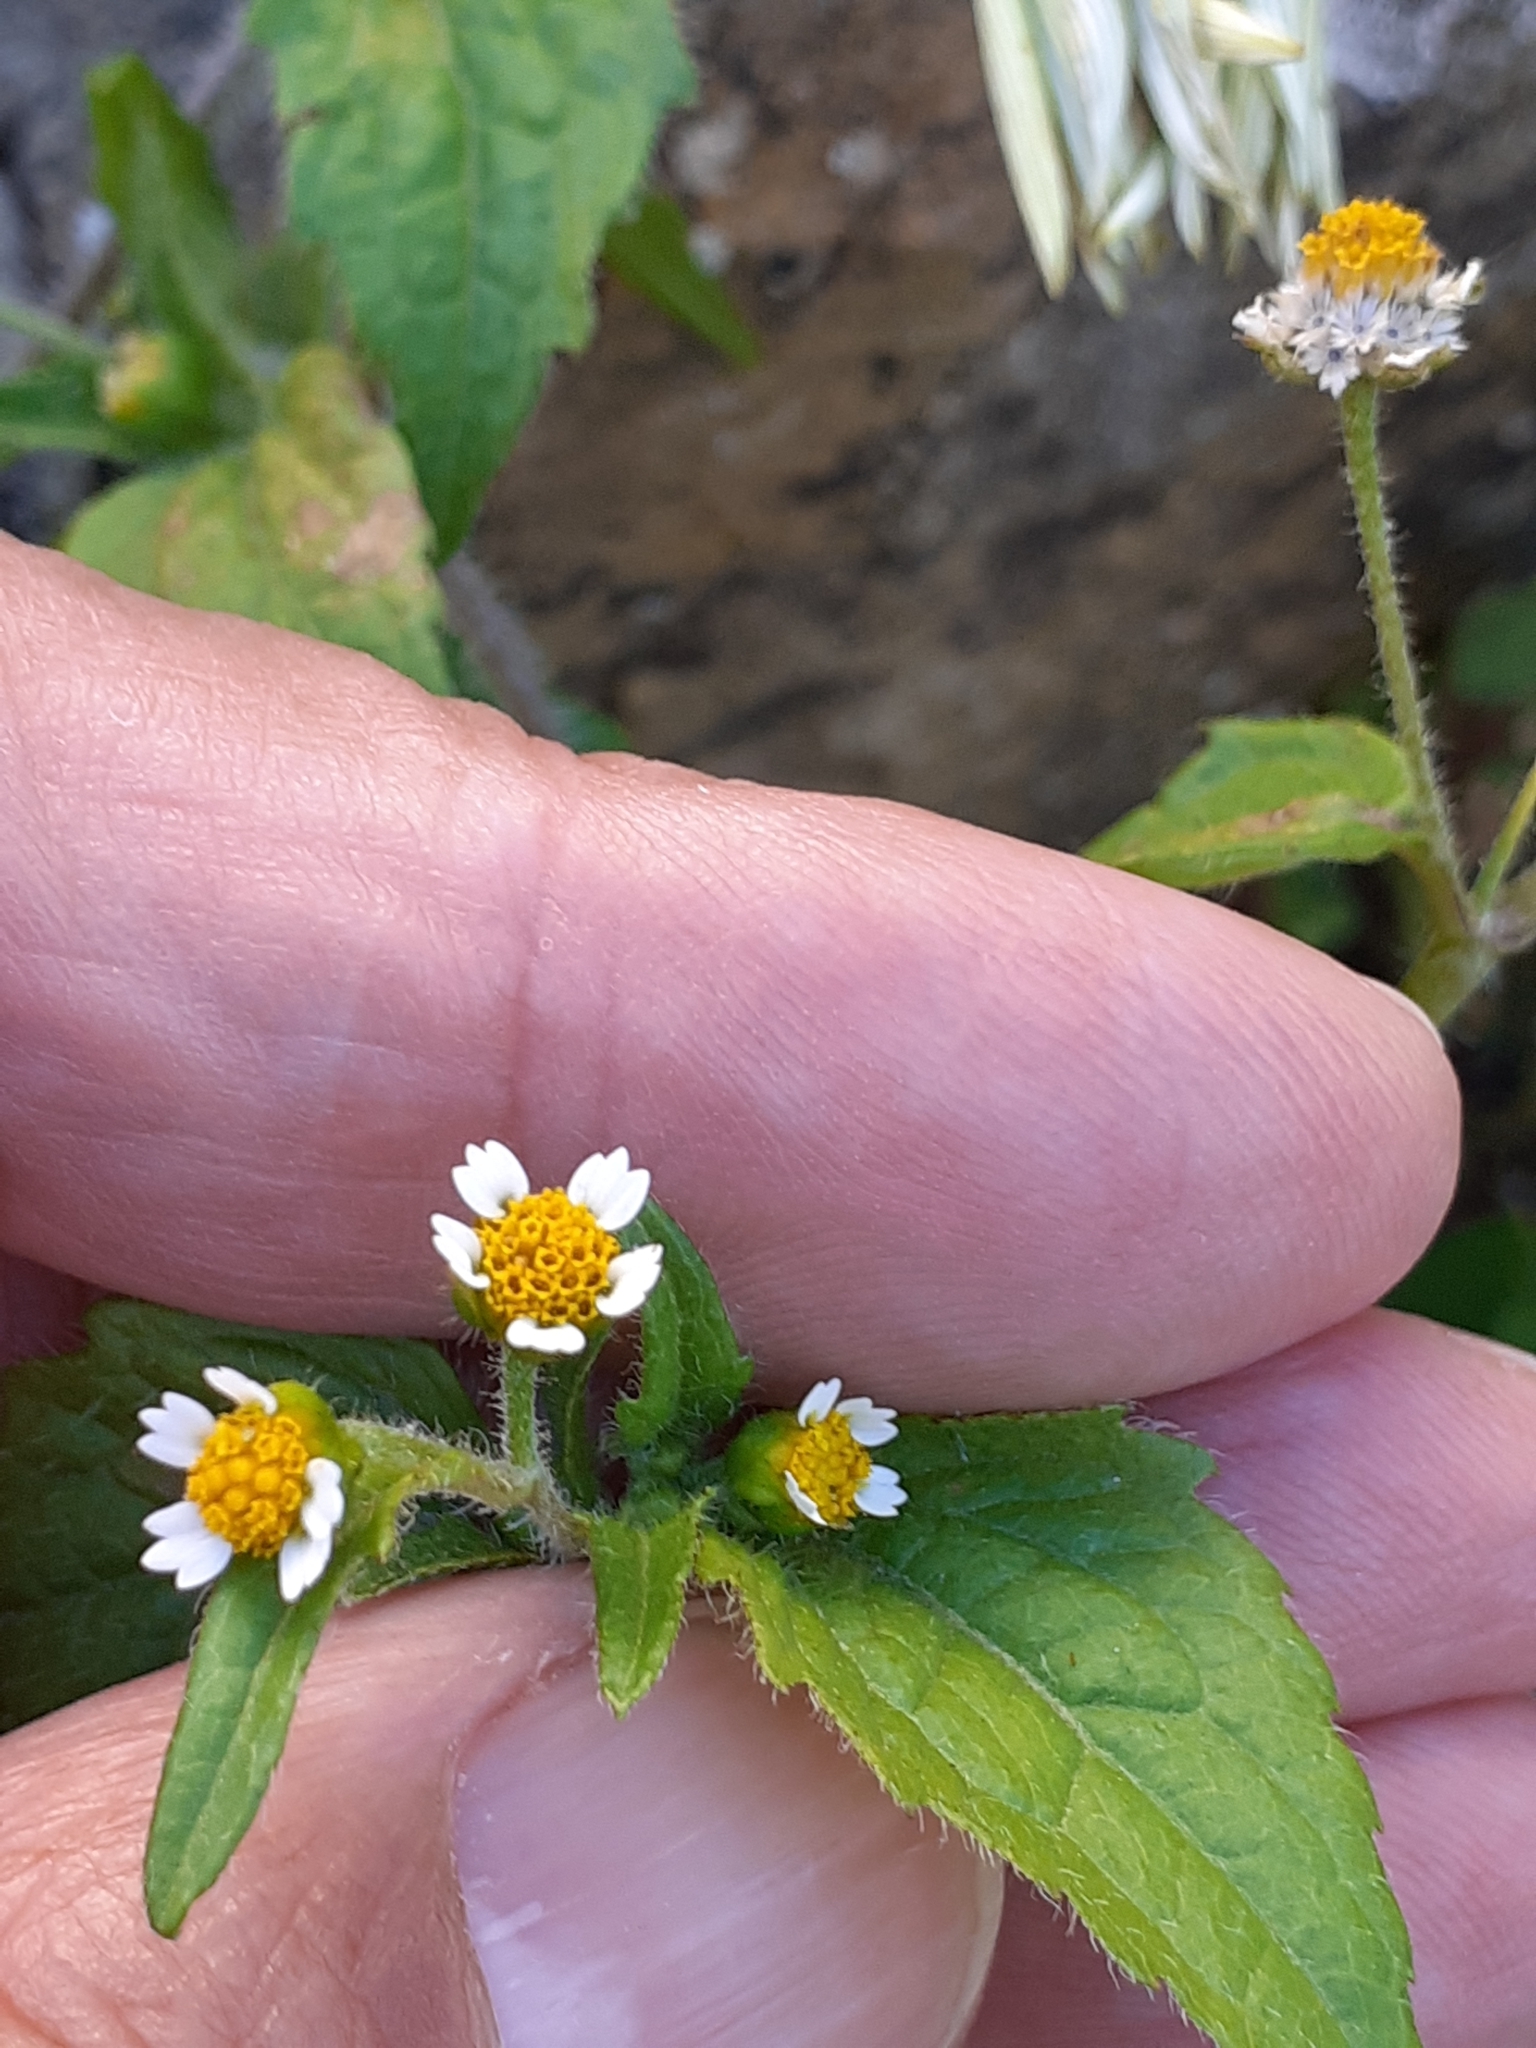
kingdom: Plantae
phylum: Tracheophyta
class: Magnoliopsida
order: Asterales
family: Asteraceae
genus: Galinsoga
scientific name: Galinsoga quadriradiata
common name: Shaggy soldier
